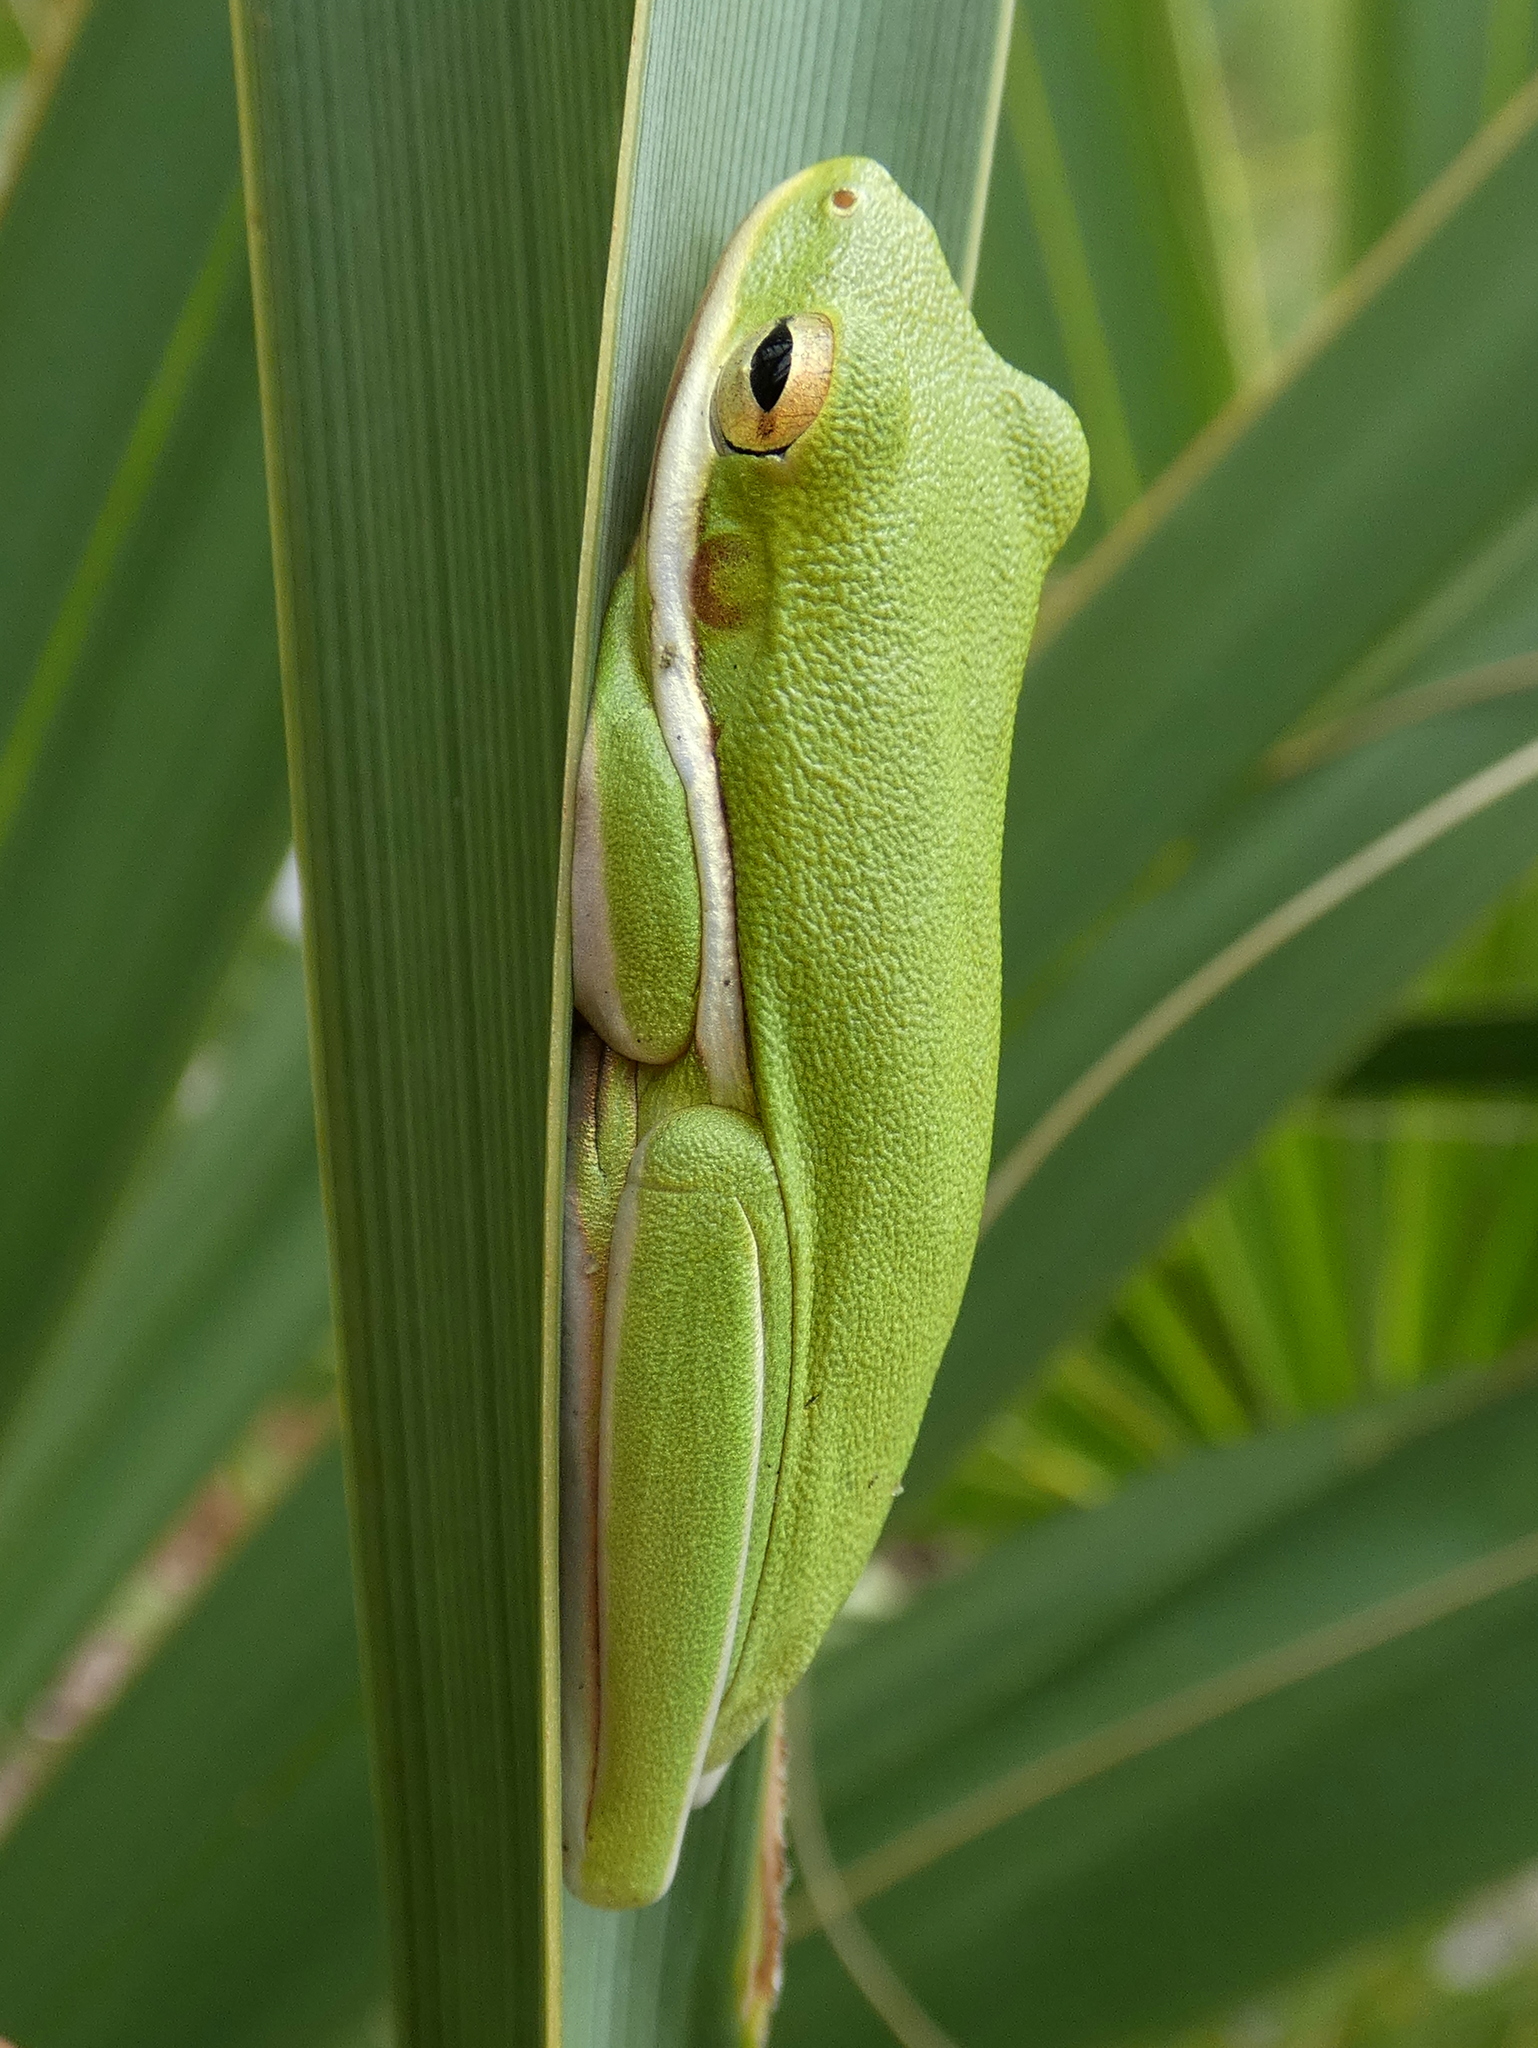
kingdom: Animalia
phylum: Chordata
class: Amphibia
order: Anura
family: Hylidae
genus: Dryophytes
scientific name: Dryophytes cinereus
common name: Green treefrog
